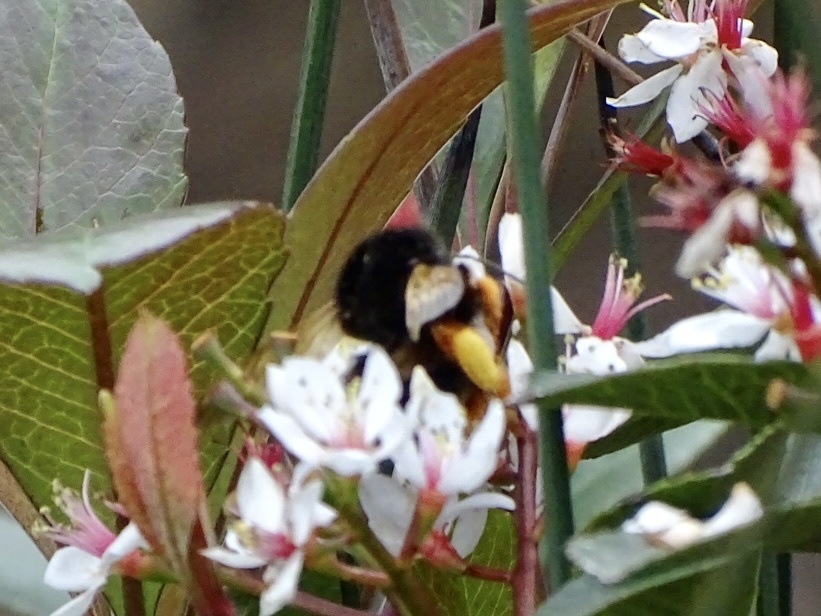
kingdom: Animalia
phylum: Arthropoda
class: Insecta
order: Hymenoptera
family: Apidae
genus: Bombus
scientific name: Bombus eximius
